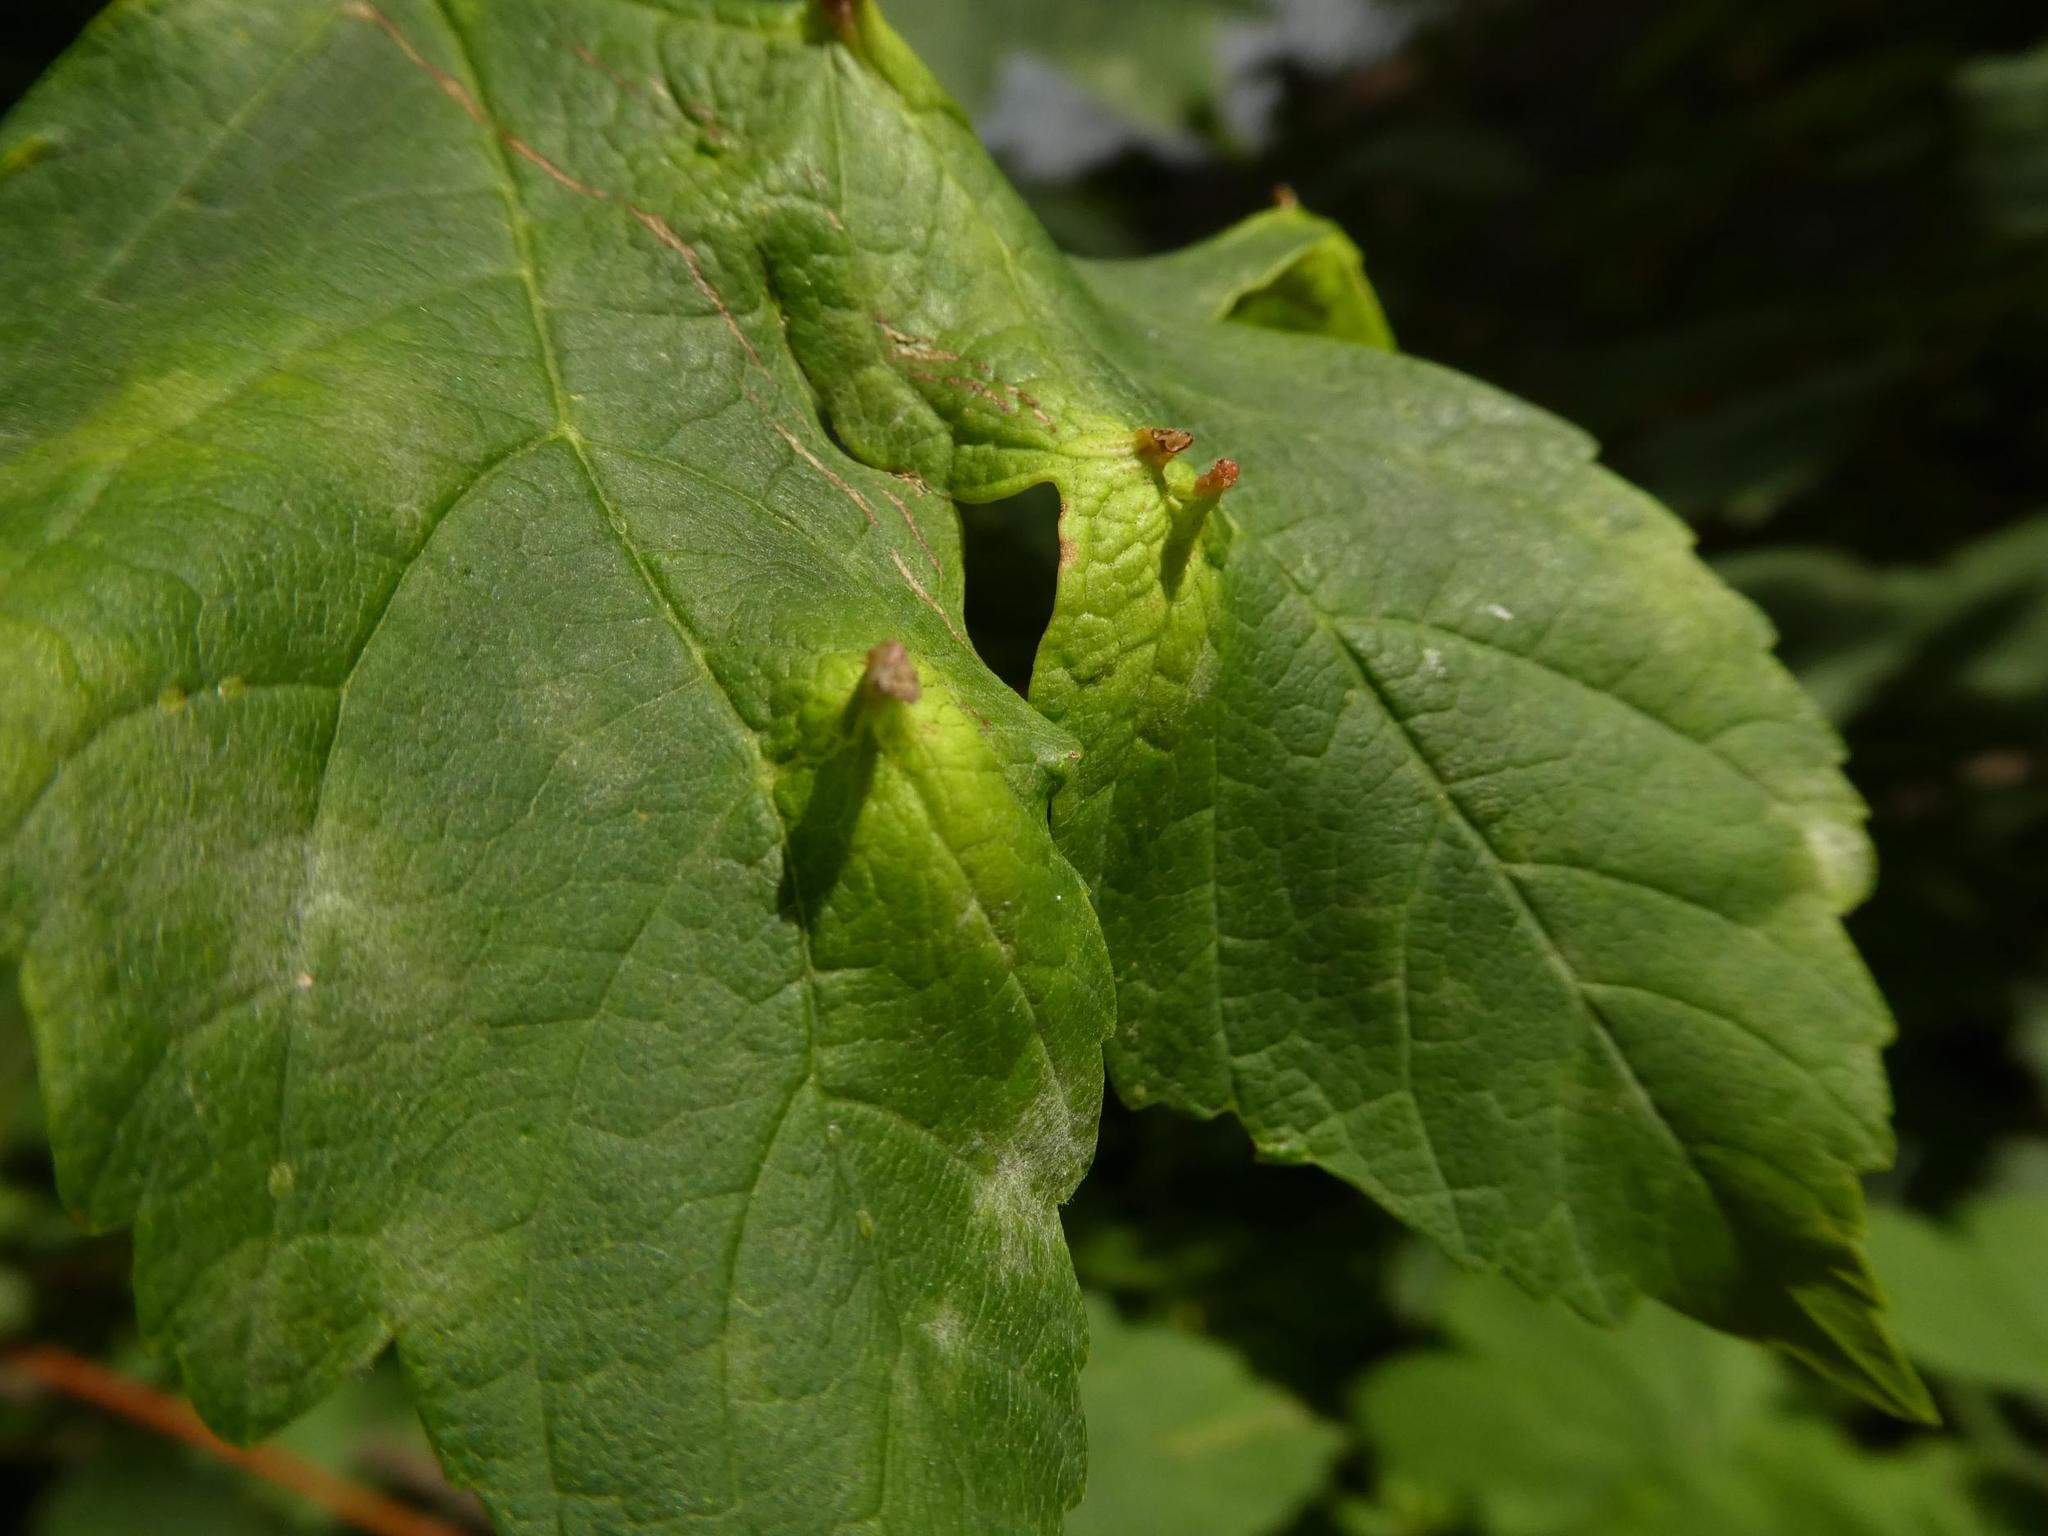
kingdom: Animalia
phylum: Arthropoda
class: Arachnida
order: Trombidiformes
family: Eriophyidae
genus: Aceria
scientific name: Aceria cephaloneus
